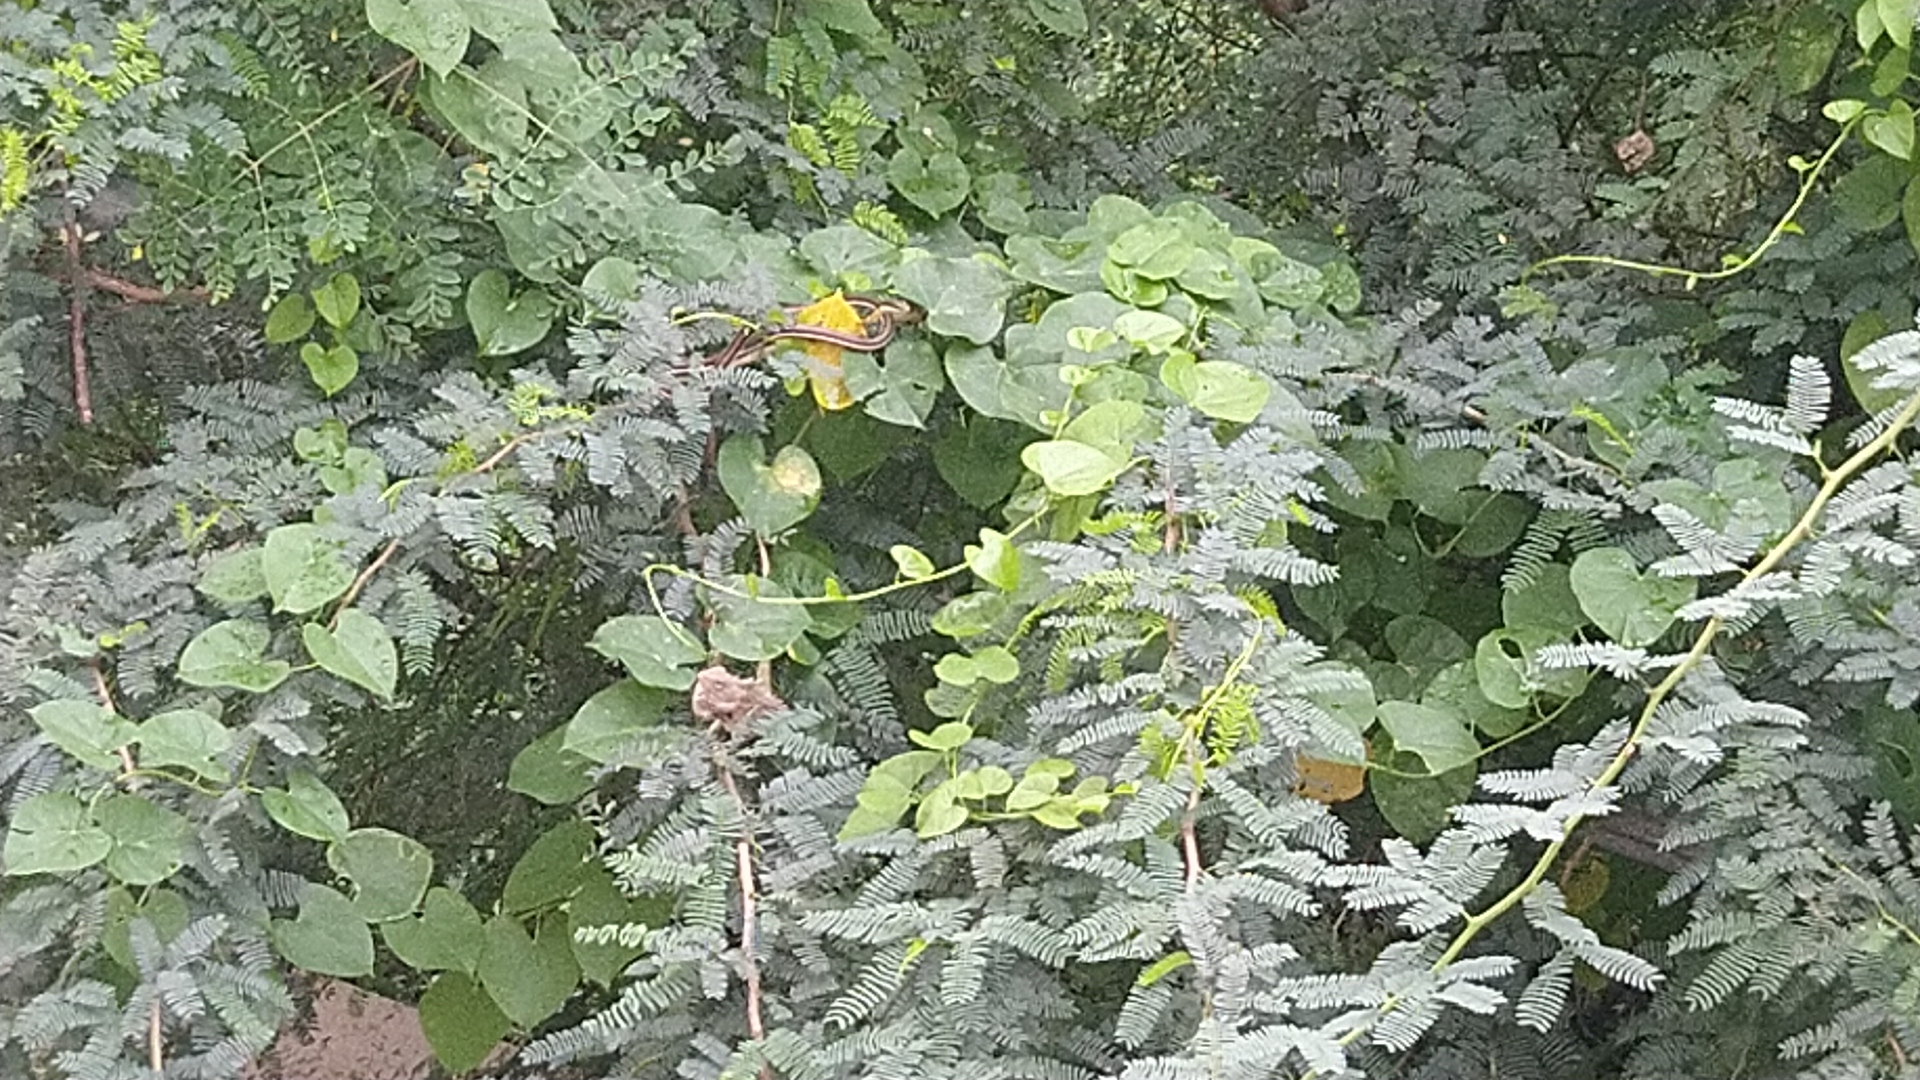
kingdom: Animalia
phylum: Chordata
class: Squamata
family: Colubridae
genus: Dendrelaphis
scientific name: Dendrelaphis tristis
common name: Daudin's bronzeback
